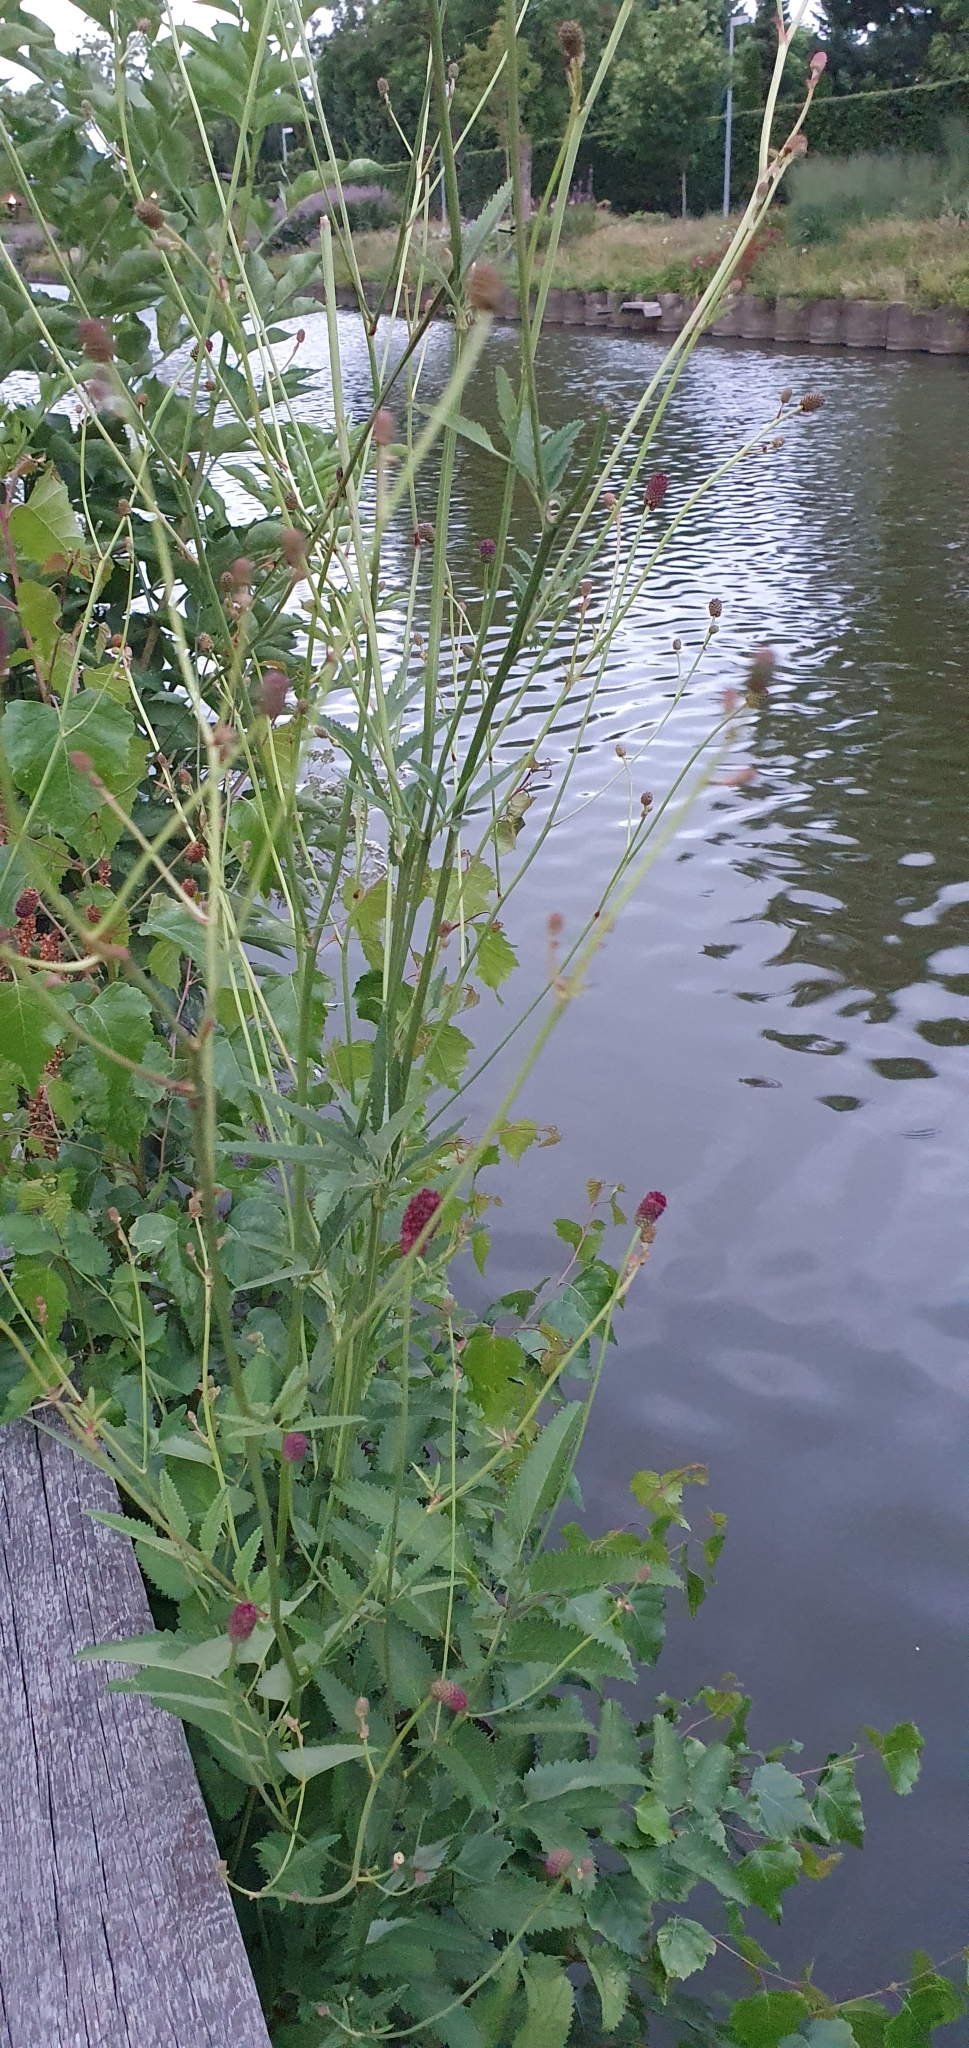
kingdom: Plantae
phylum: Tracheophyta
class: Magnoliopsida
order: Rosales
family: Rosaceae
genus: Sanguisorba
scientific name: Sanguisorba officinalis
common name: Great burnet
